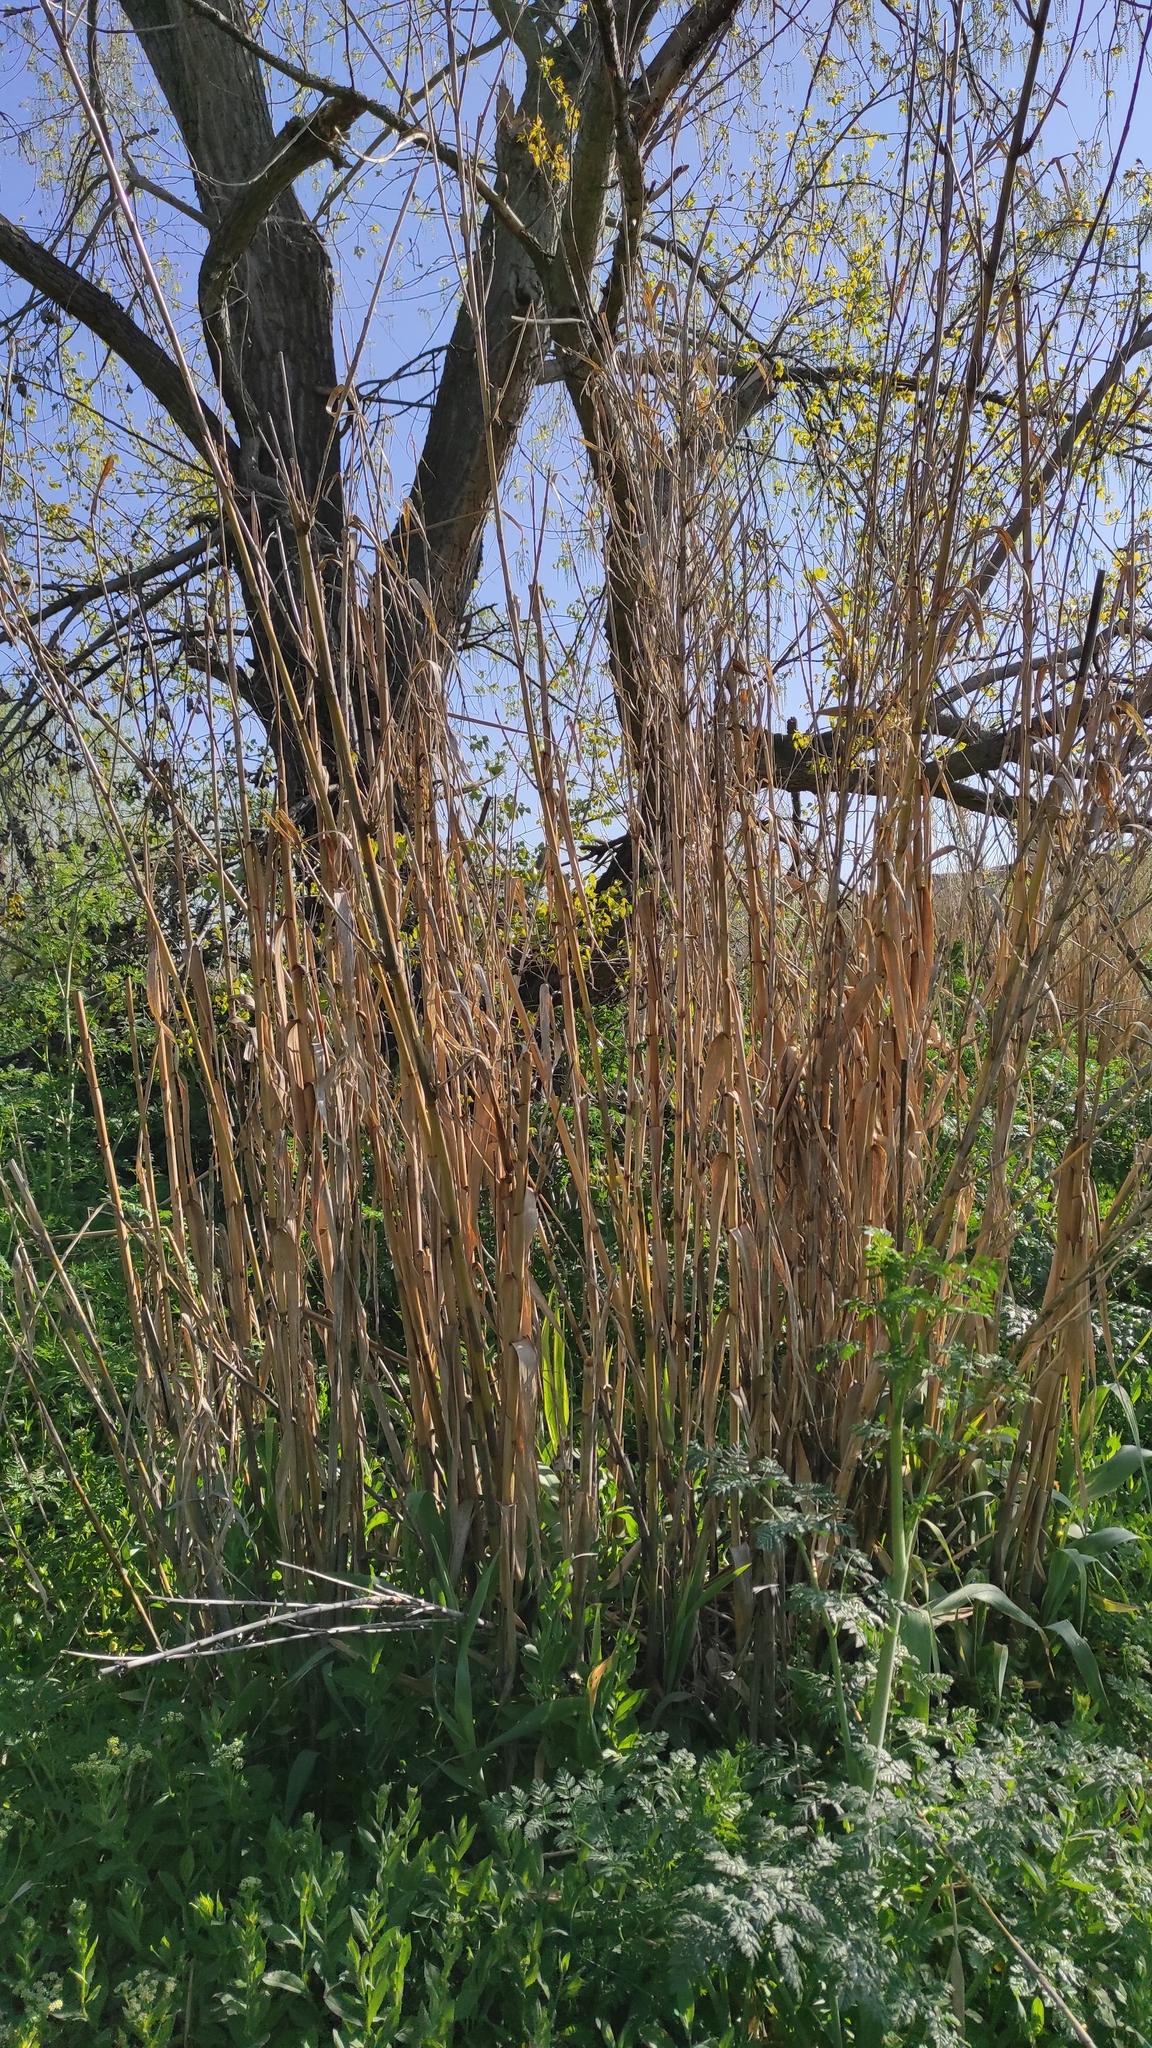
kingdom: Plantae
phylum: Tracheophyta
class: Liliopsida
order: Poales
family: Poaceae
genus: Arundo
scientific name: Arundo donax
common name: Giant reed
